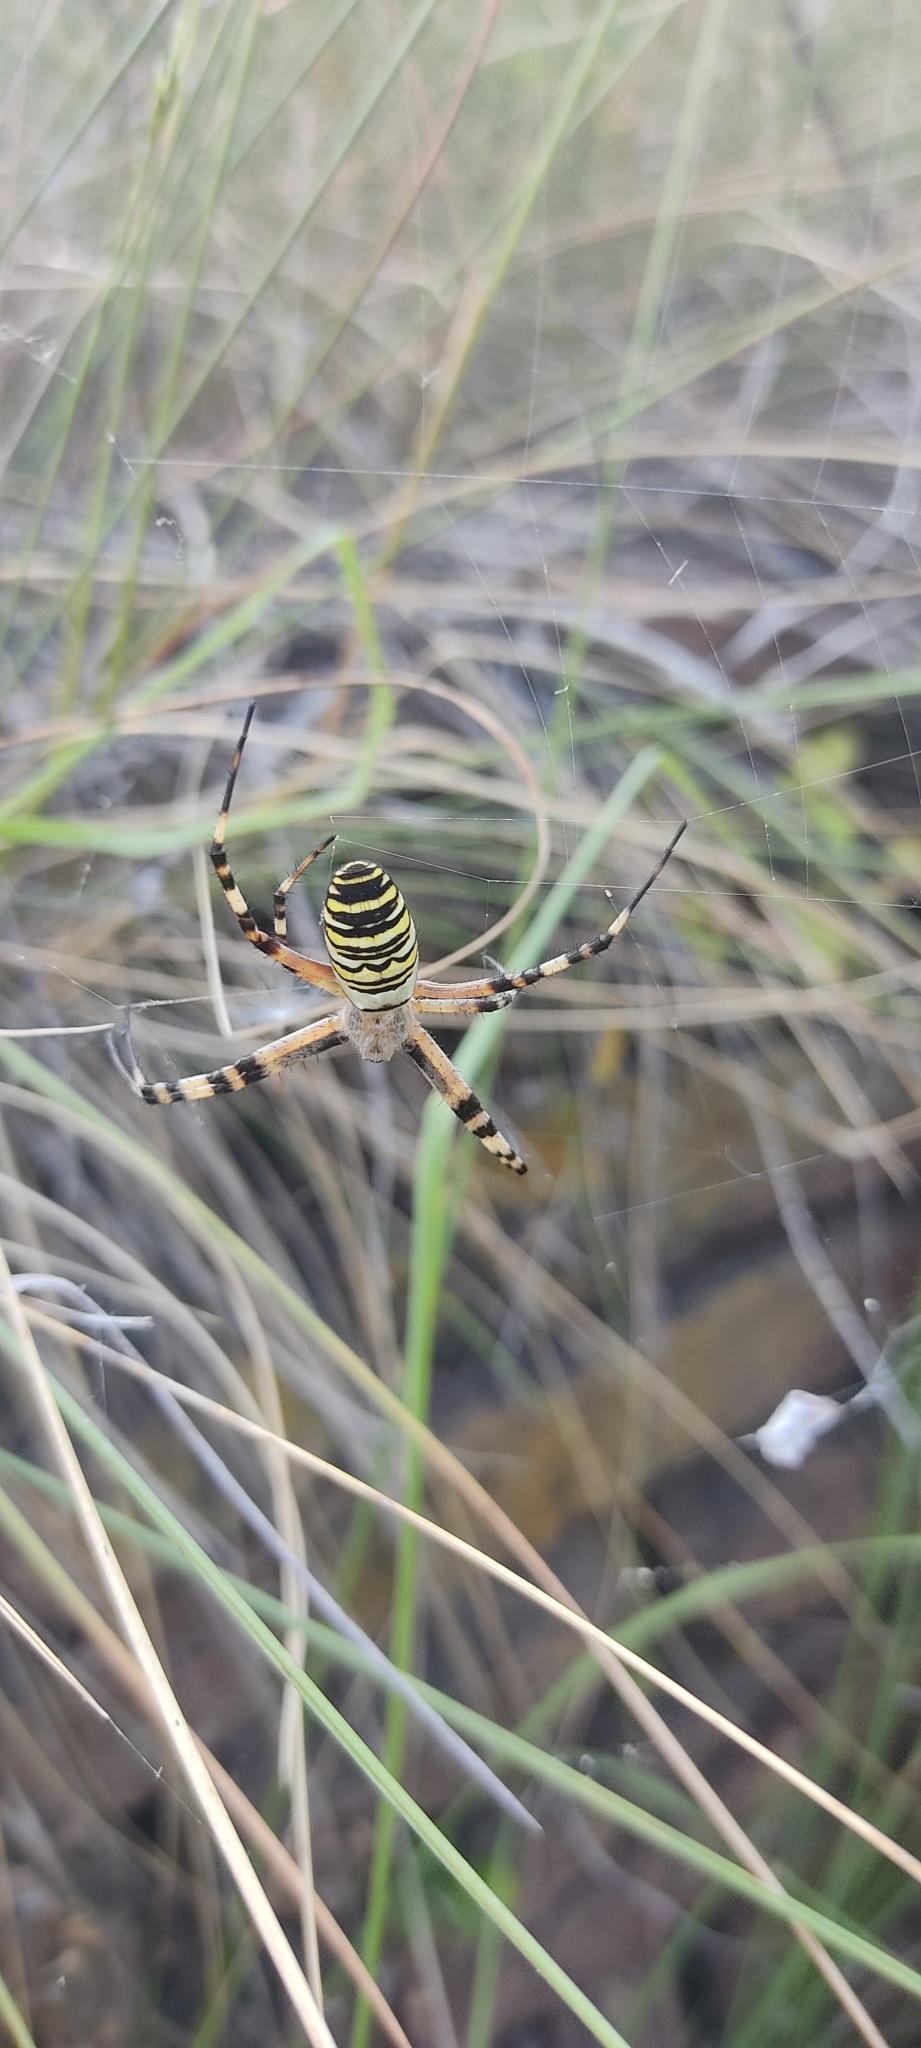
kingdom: Animalia
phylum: Arthropoda
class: Arachnida
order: Araneae
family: Araneidae
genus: Argiope
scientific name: Argiope bruennichi
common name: Wasp spider
